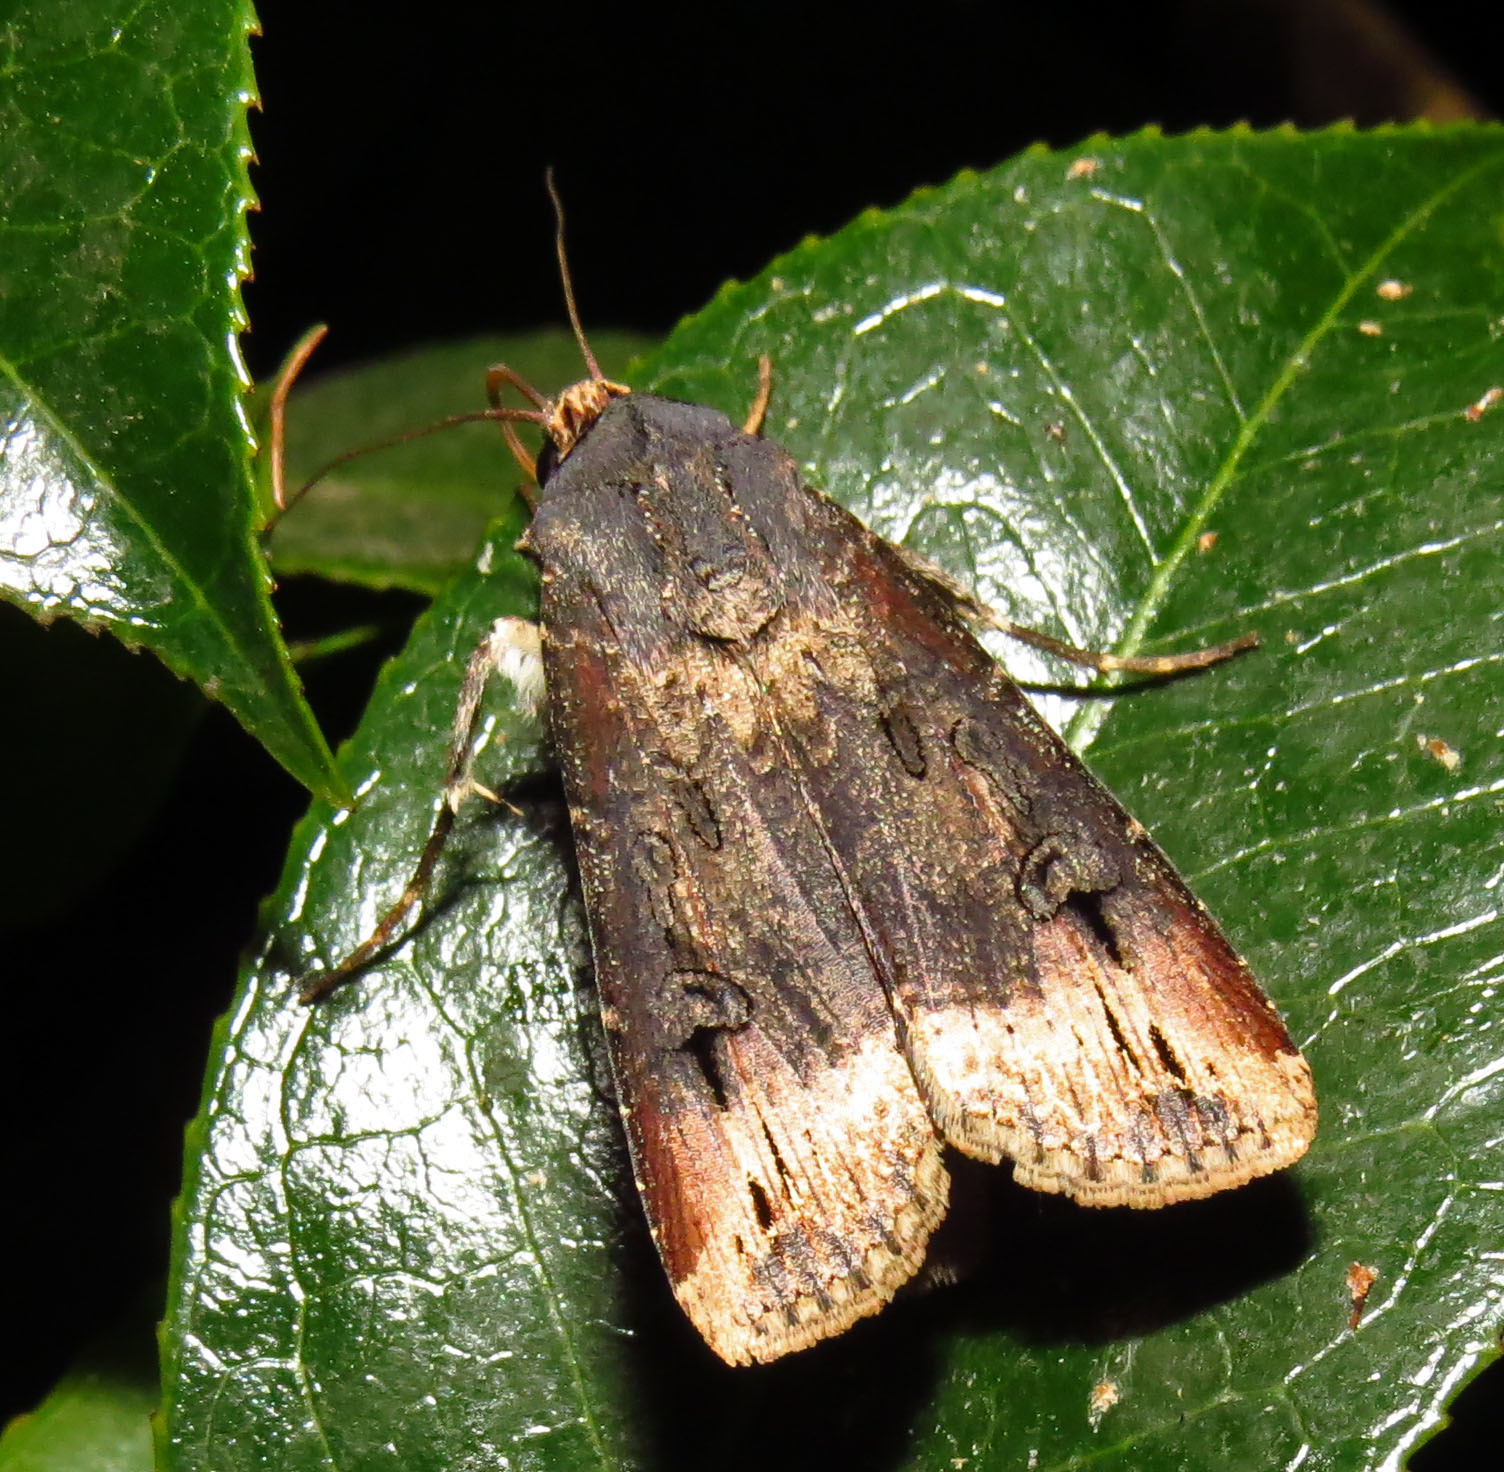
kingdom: Animalia
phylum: Arthropoda
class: Insecta
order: Lepidoptera
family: Noctuidae
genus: Agrotis
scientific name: Agrotis ipsilon
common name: Dark sword-grass
